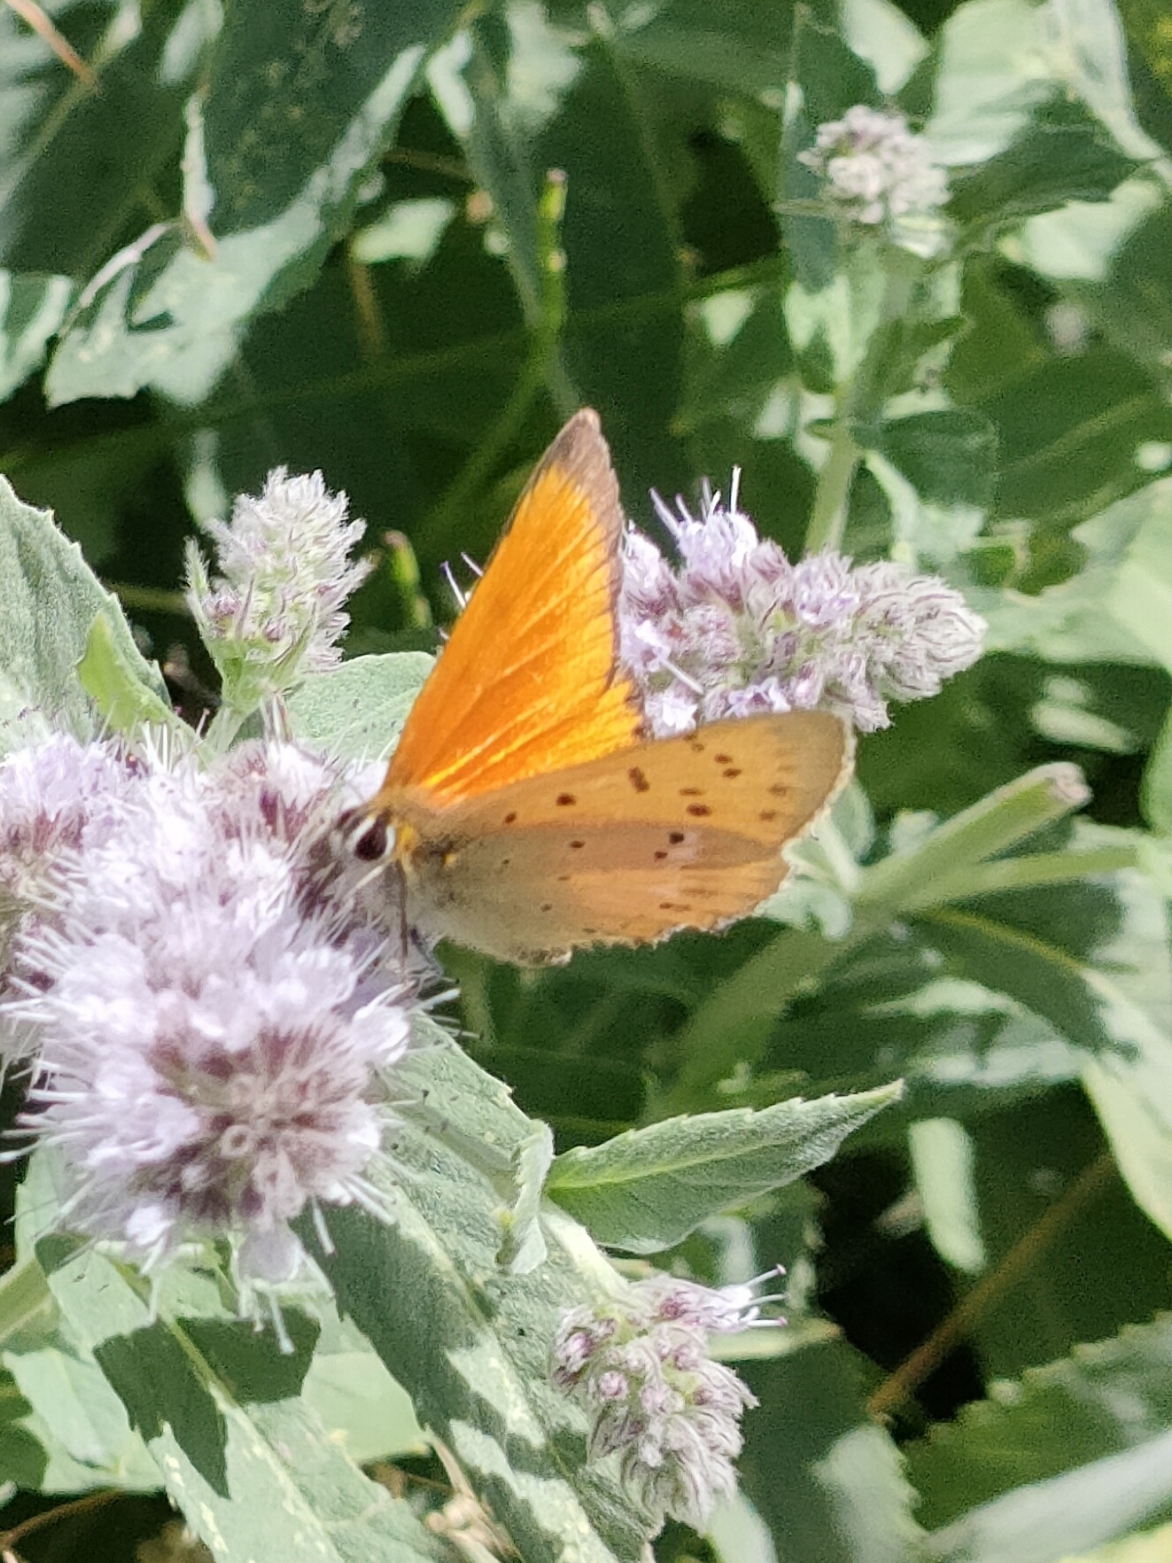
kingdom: Animalia
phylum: Arthropoda
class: Insecta
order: Lepidoptera
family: Lycaenidae
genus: Lycaena
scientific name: Lycaena virgaureae
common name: Scarce copper
